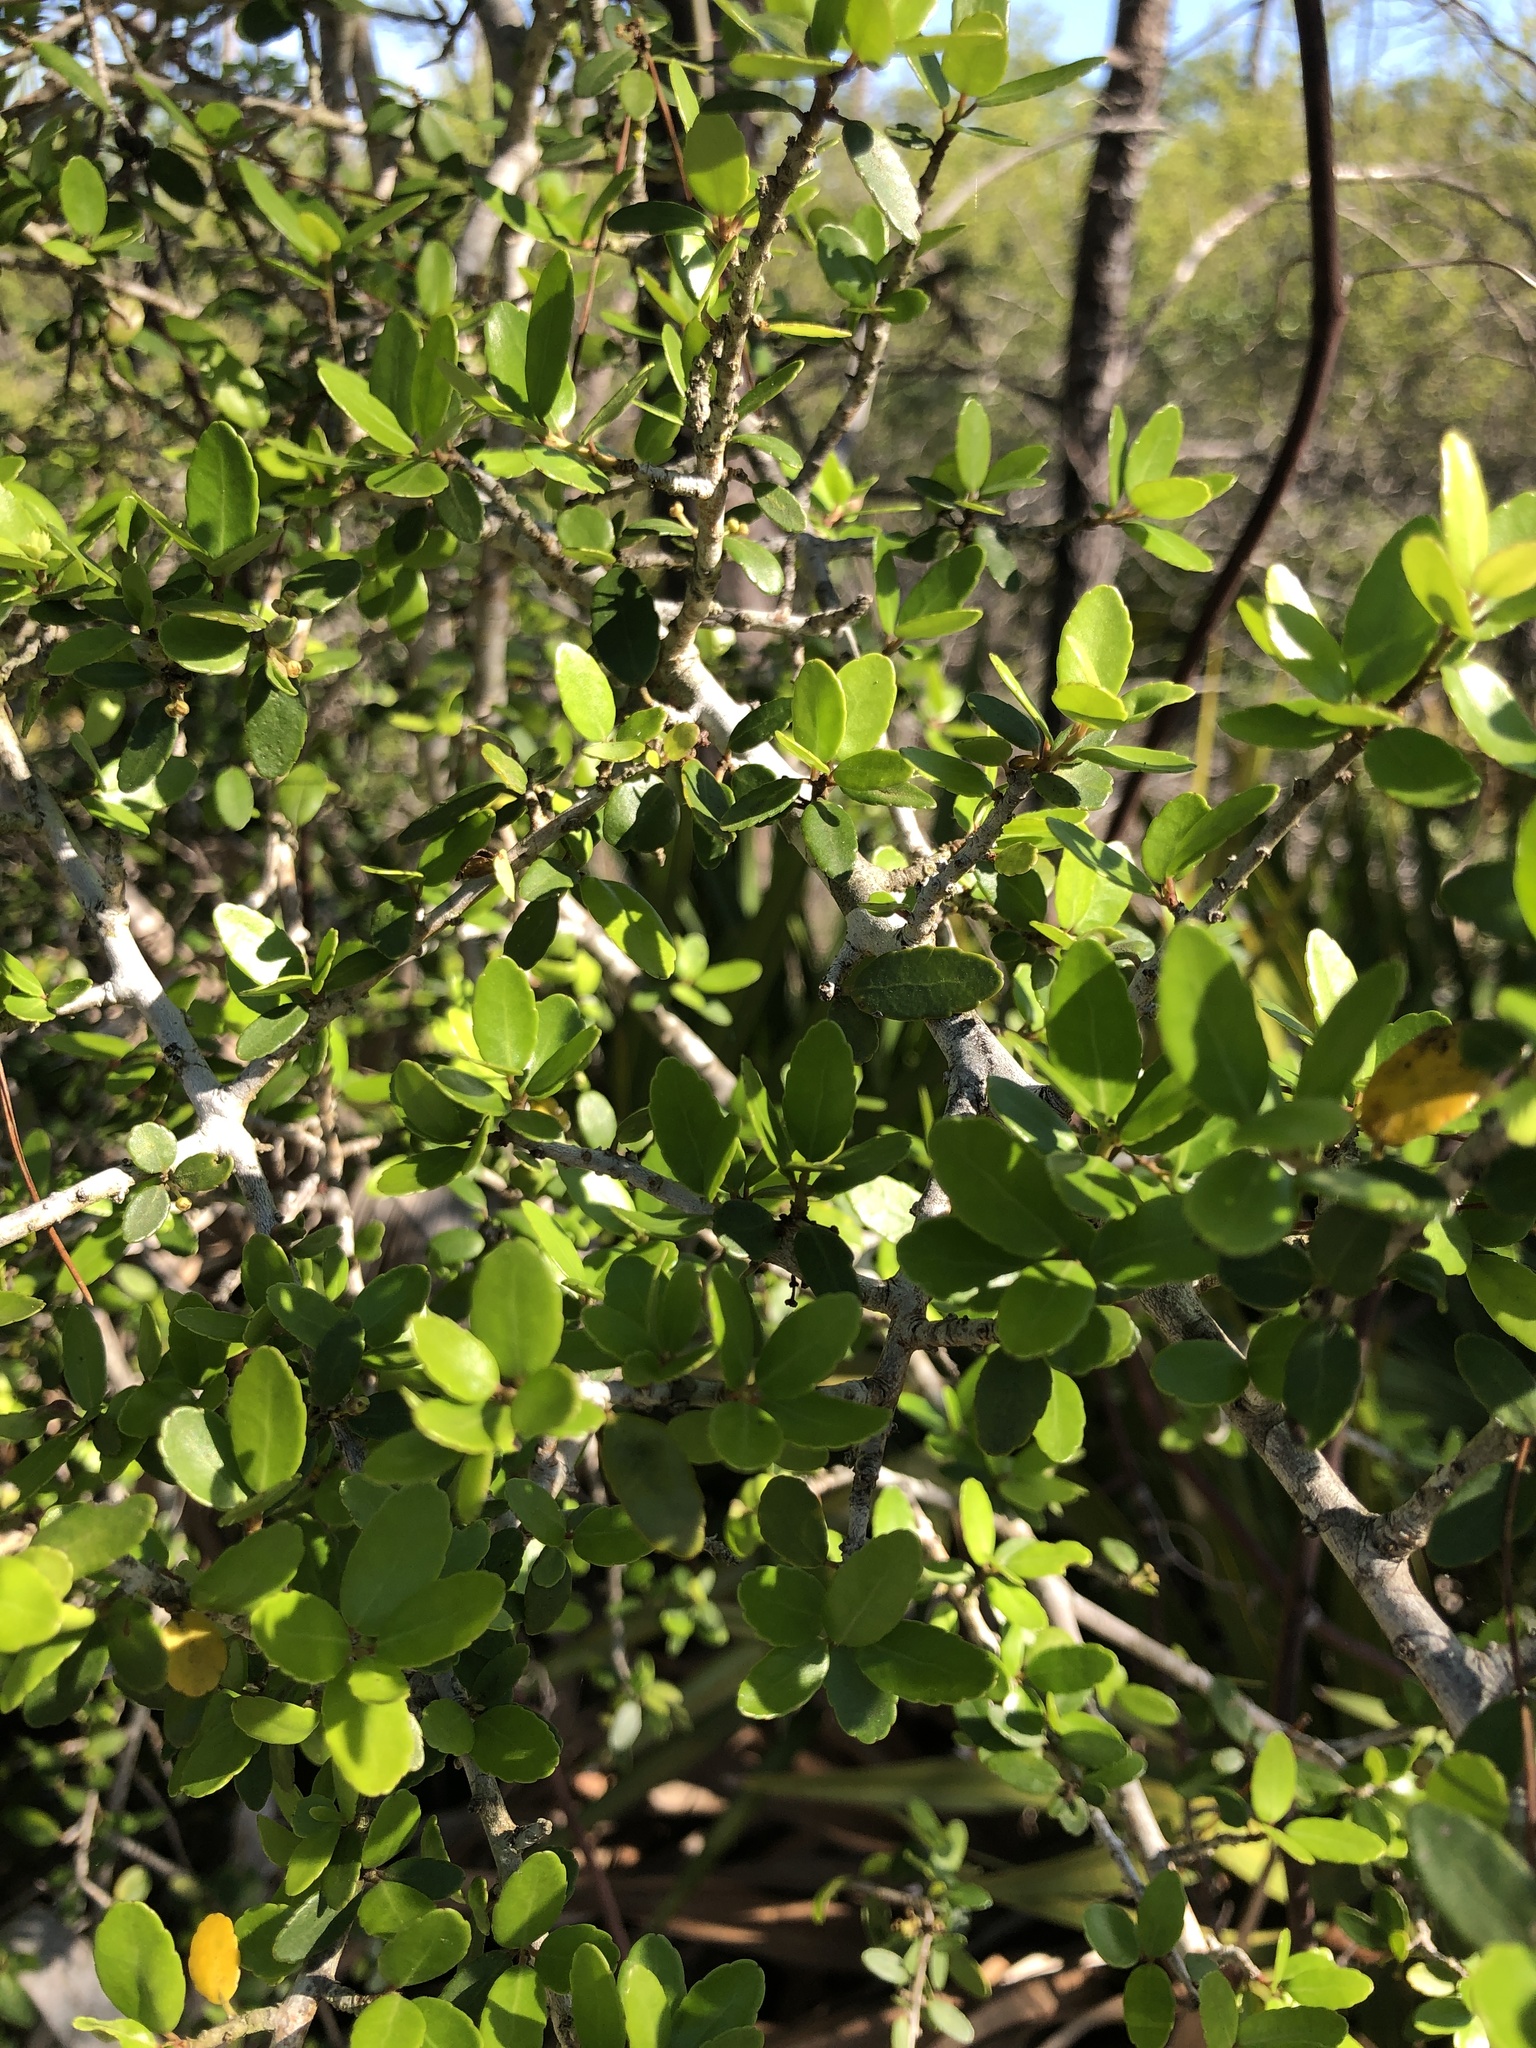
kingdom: Plantae
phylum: Tracheophyta
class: Magnoliopsida
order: Aquifoliales
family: Aquifoliaceae
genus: Ilex
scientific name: Ilex vomitoria
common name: Yaupon holly
